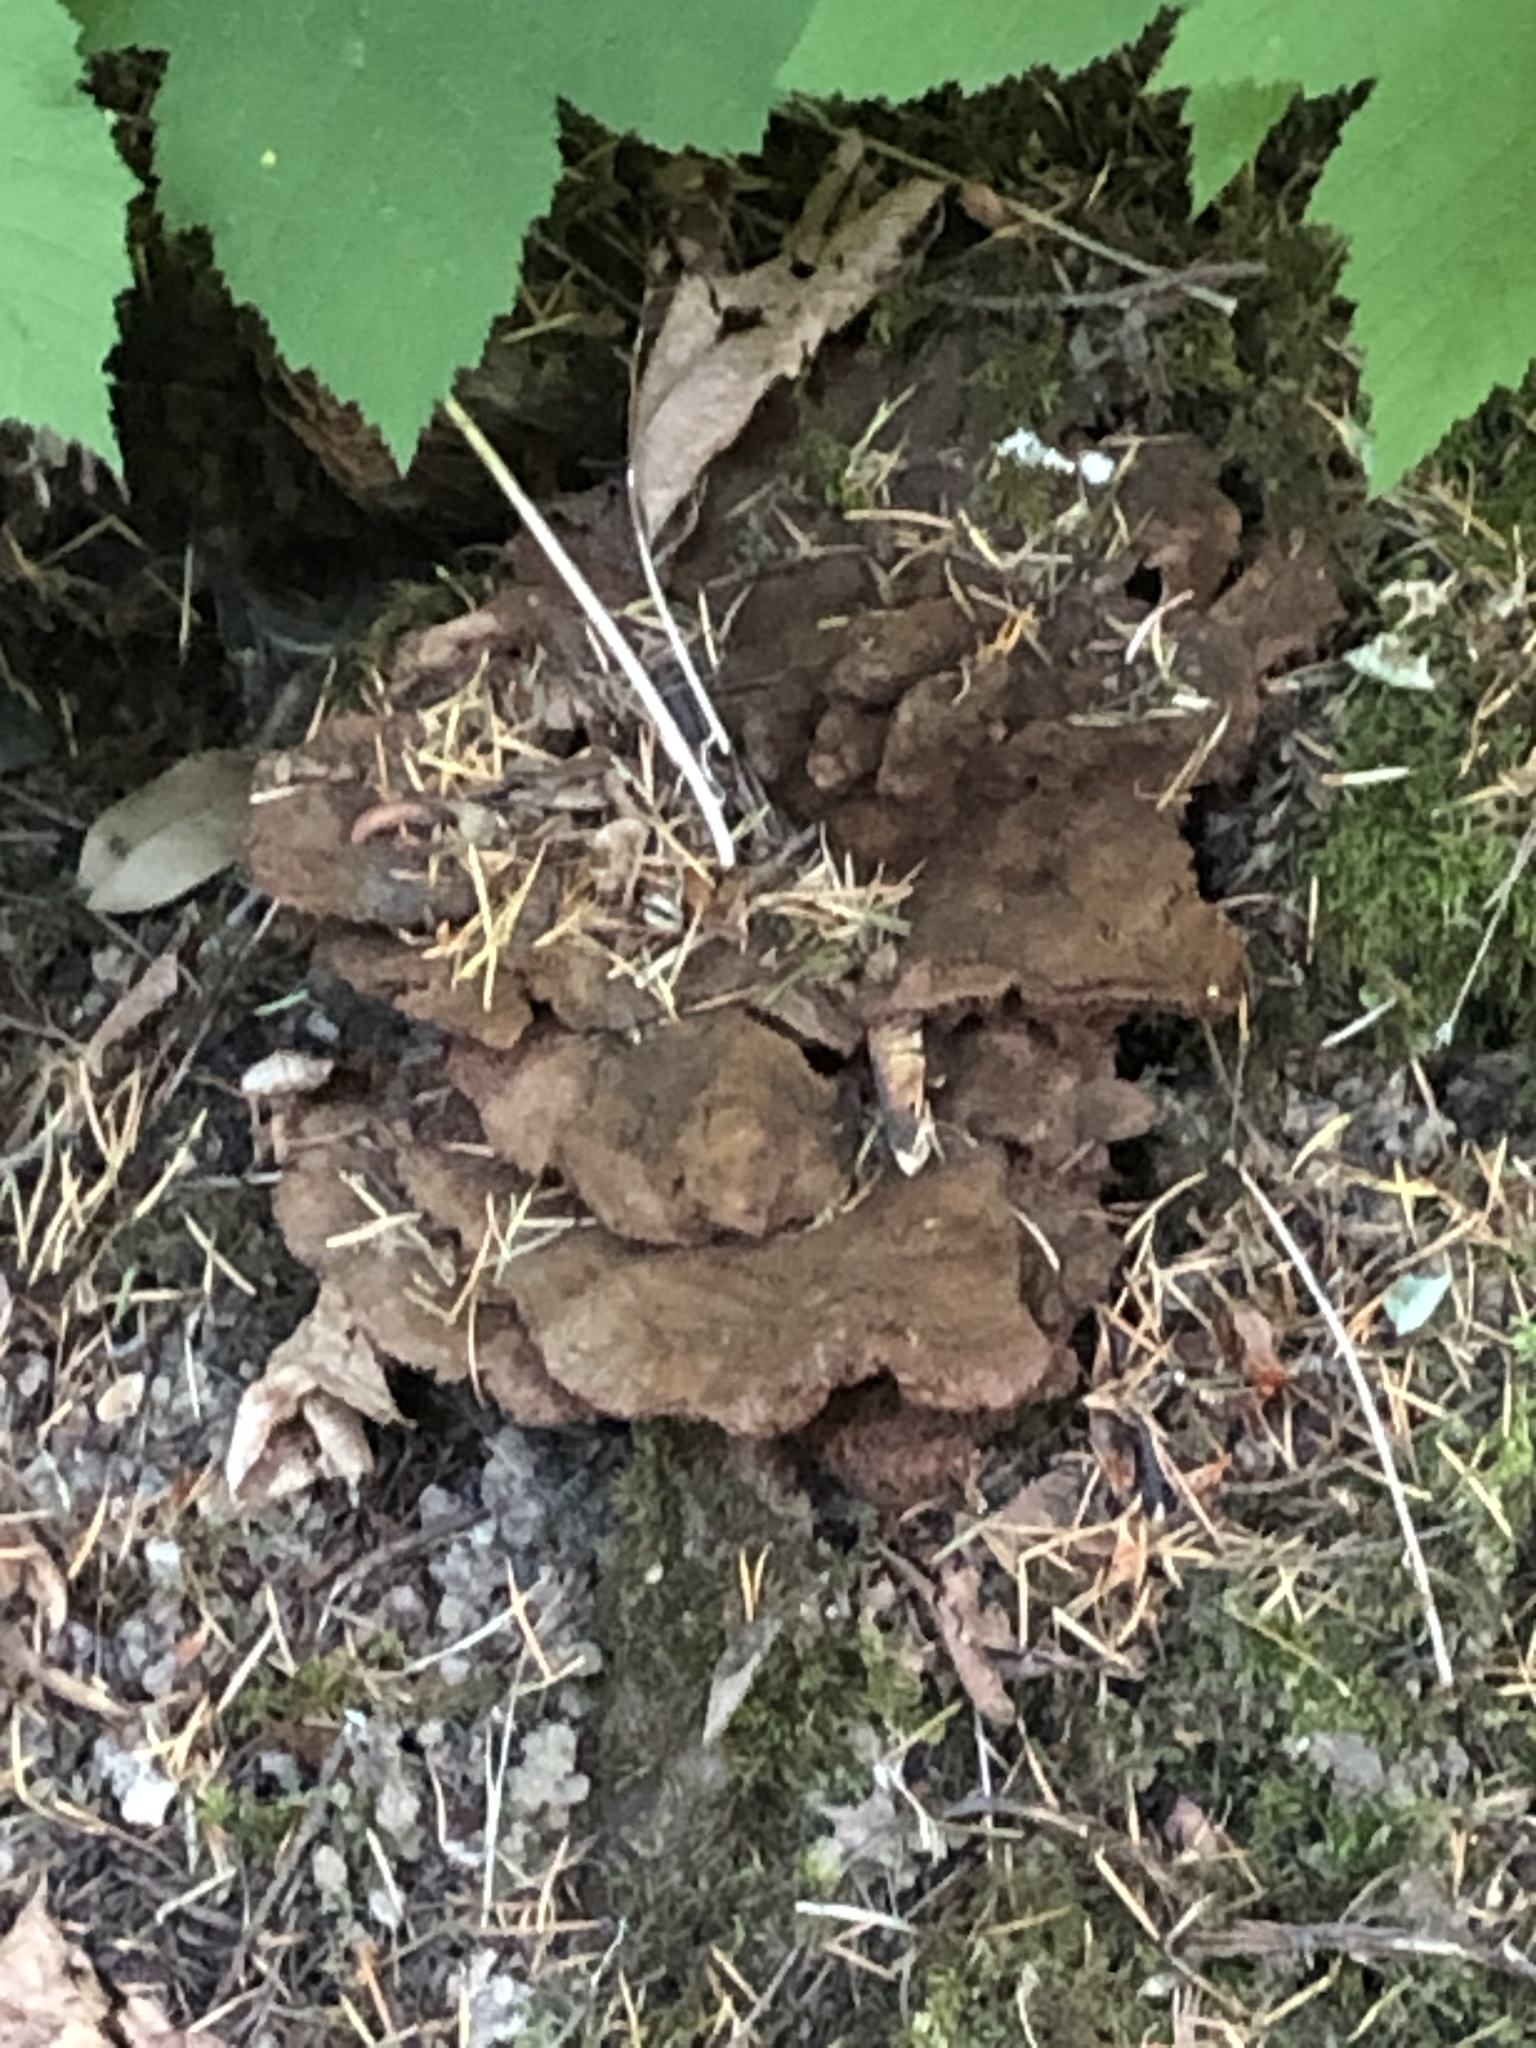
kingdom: Fungi
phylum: Basidiomycota
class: Agaricomycetes
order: Polyporales
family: Laetiporaceae
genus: Phaeolus
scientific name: Phaeolus schweinitzii
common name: Dyer's mazegill
